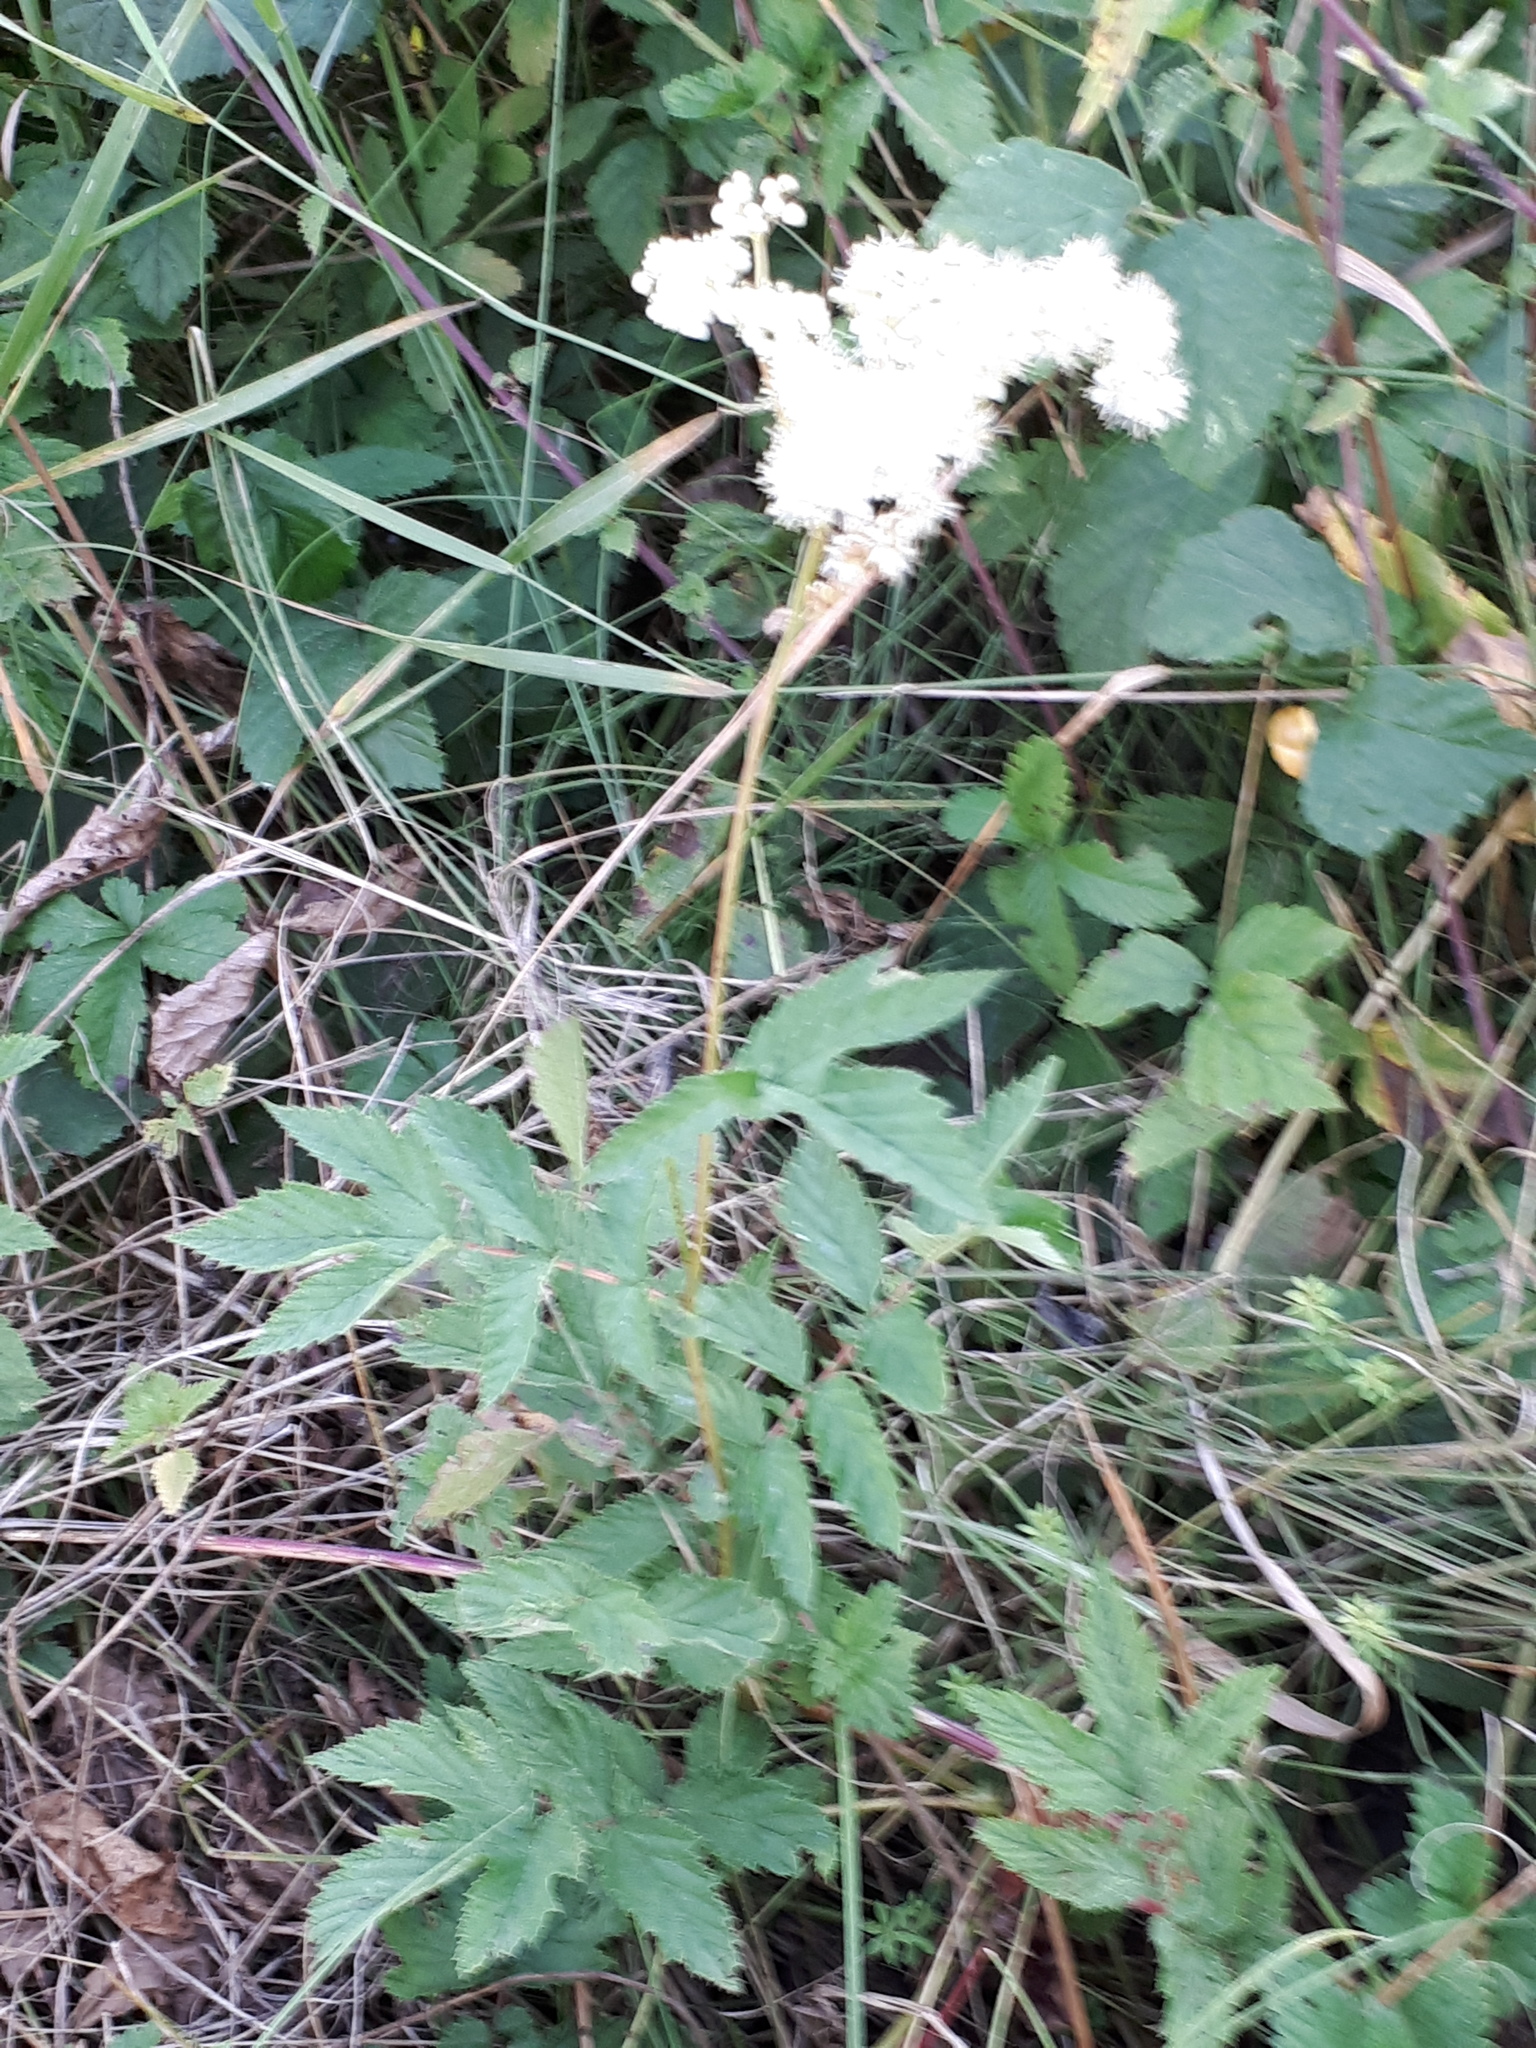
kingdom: Plantae
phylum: Tracheophyta
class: Magnoliopsida
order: Rosales
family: Rosaceae
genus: Filipendula
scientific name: Filipendula ulmaria
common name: Meadowsweet
